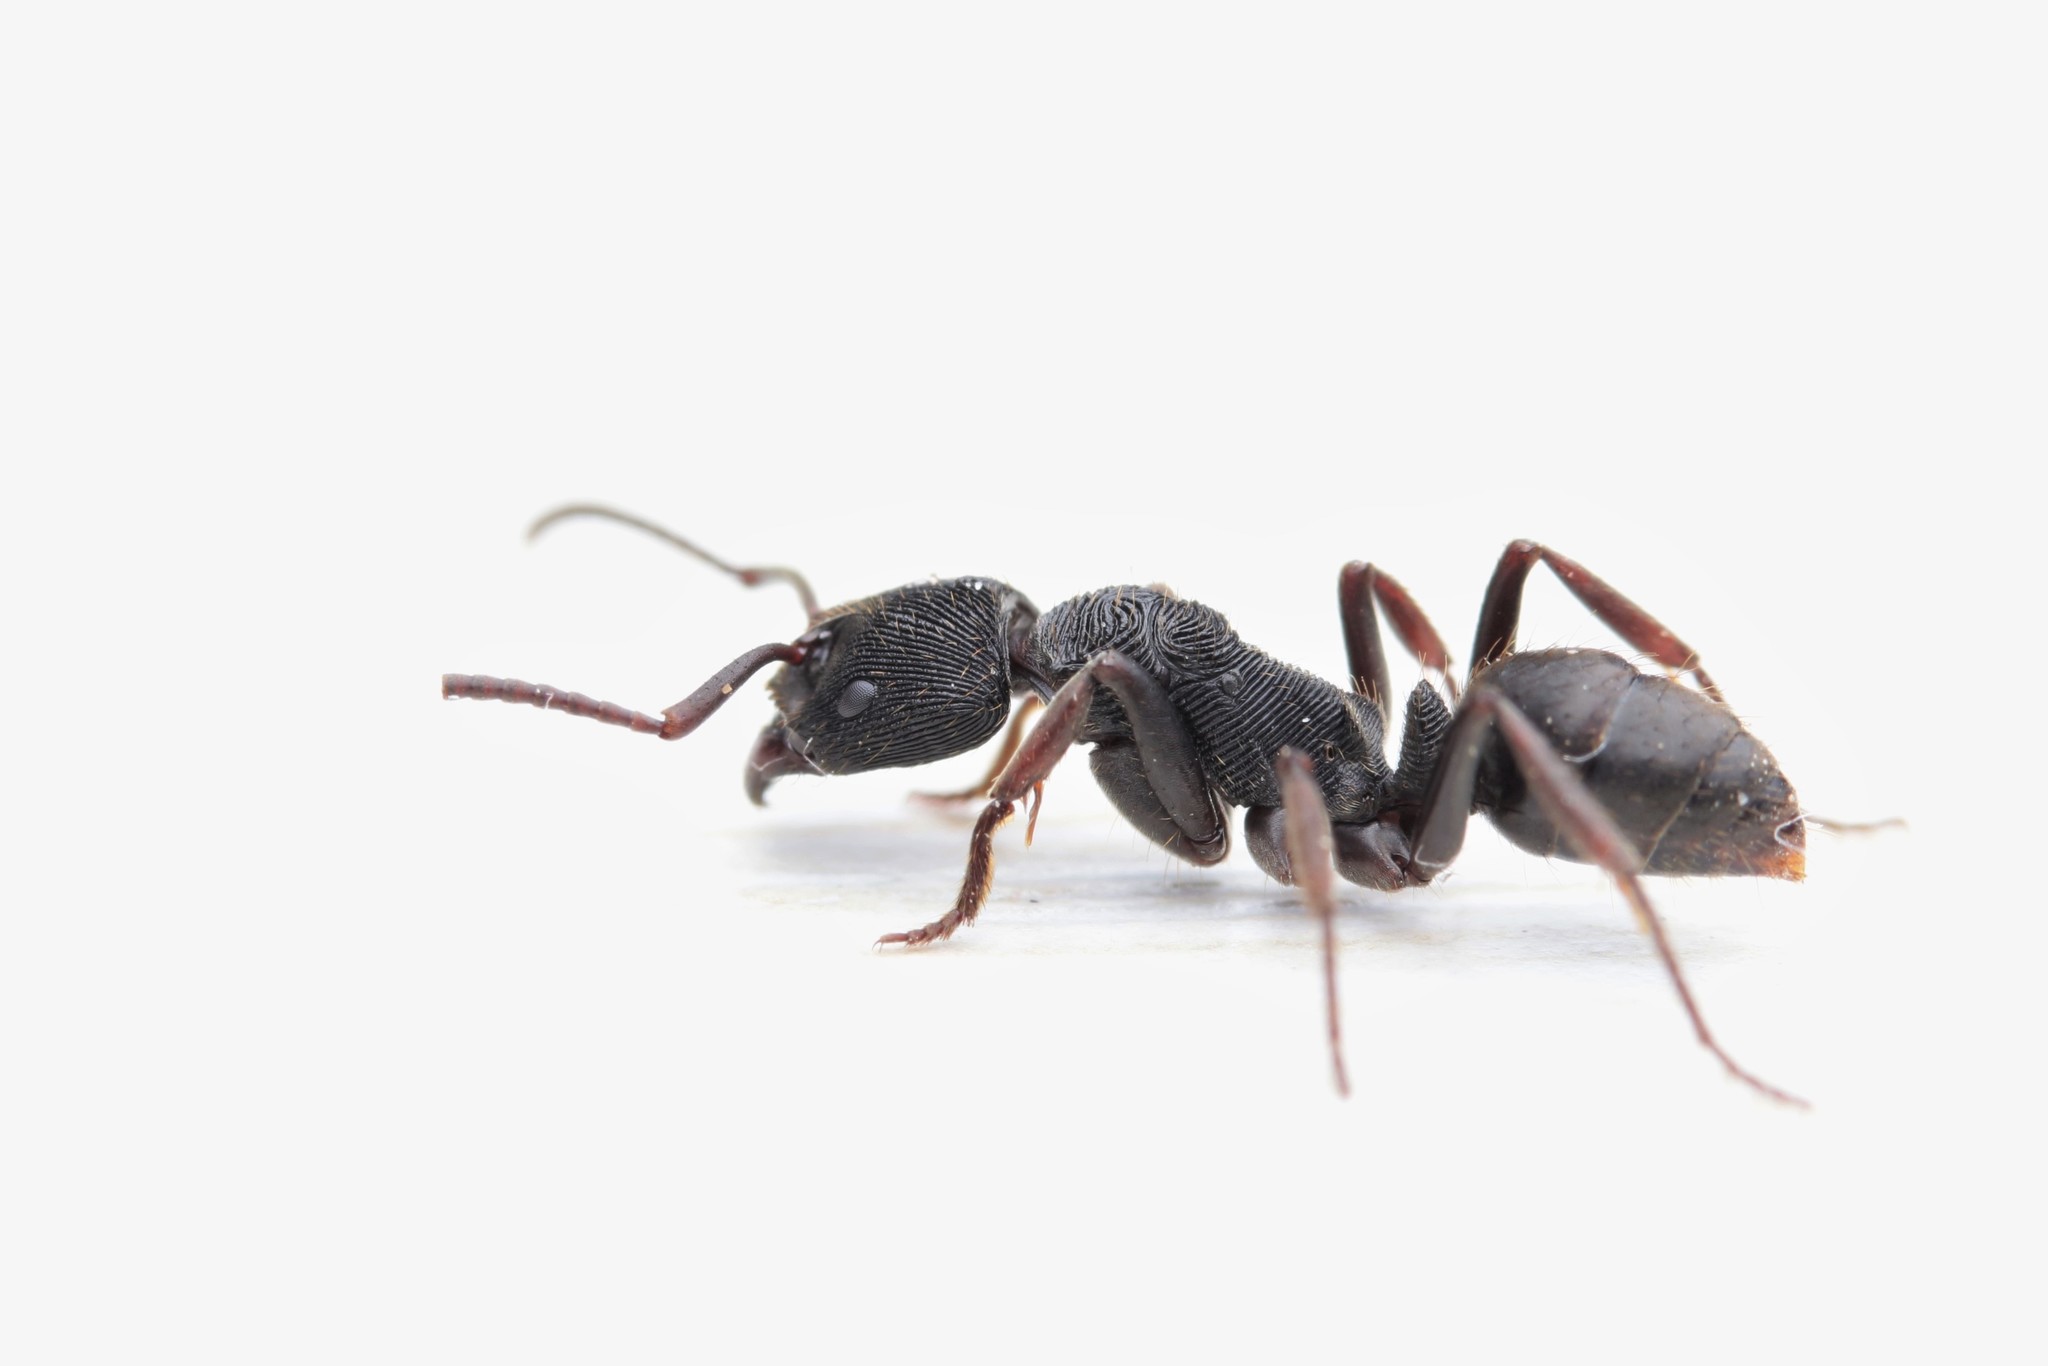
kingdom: Animalia
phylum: Arthropoda
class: Insecta
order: Hymenoptera
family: Formicidae
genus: Odontoponera
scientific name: Odontoponera denticulata
